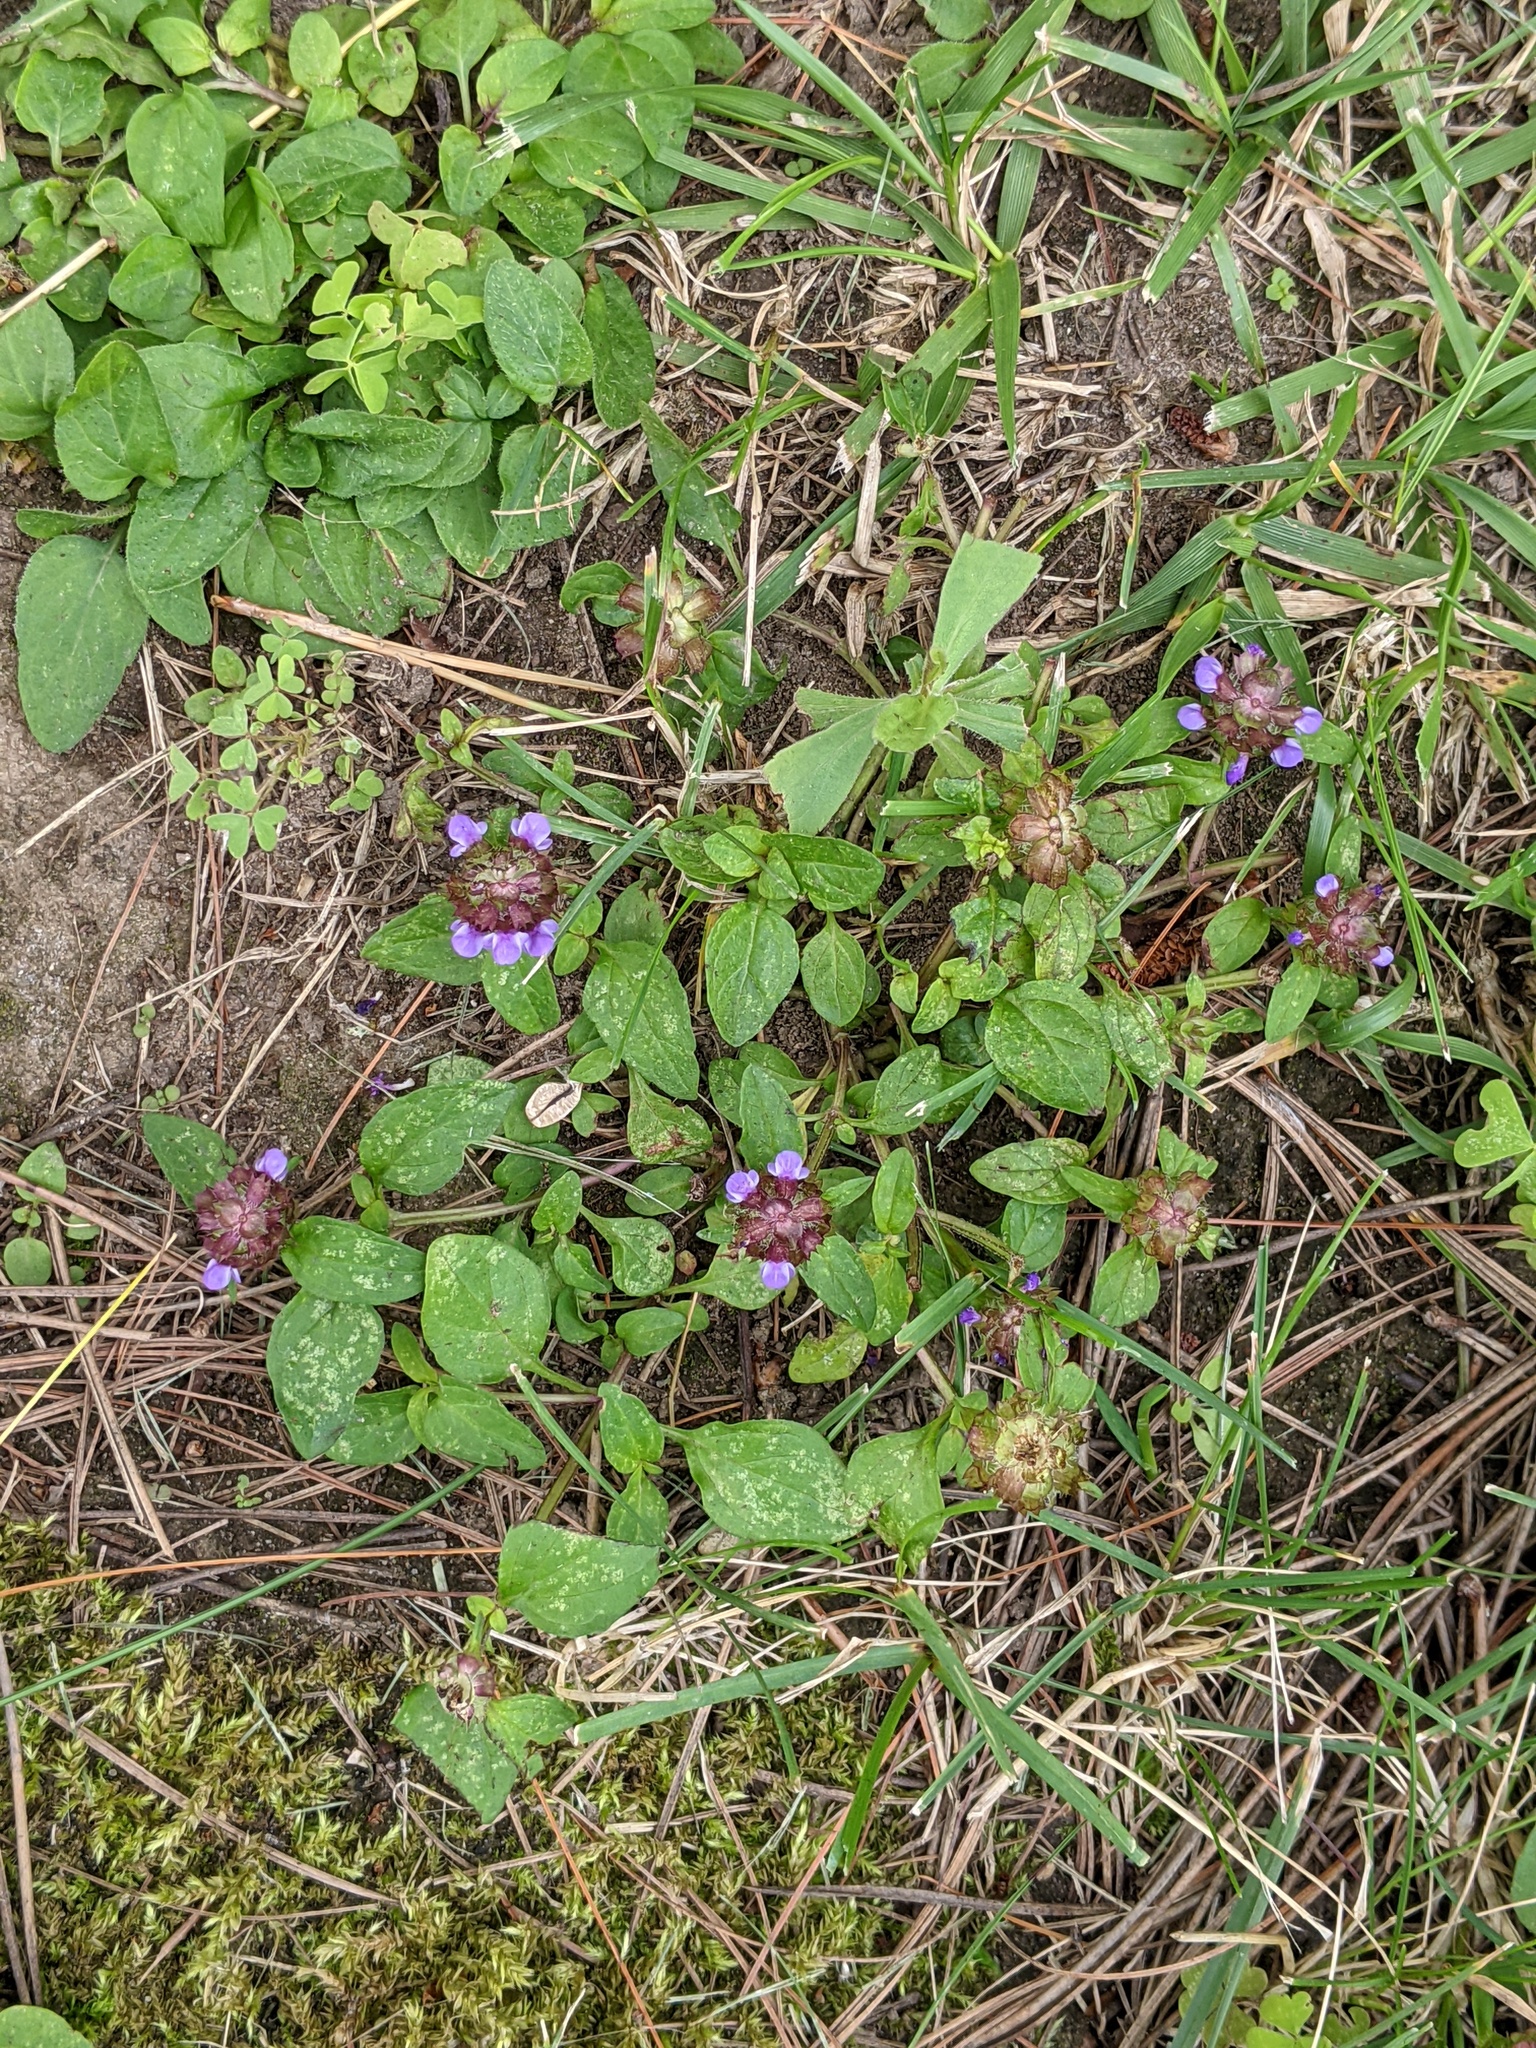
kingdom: Plantae
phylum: Tracheophyta
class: Magnoliopsida
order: Lamiales
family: Lamiaceae
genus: Prunella
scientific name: Prunella vulgaris
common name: Heal-all
